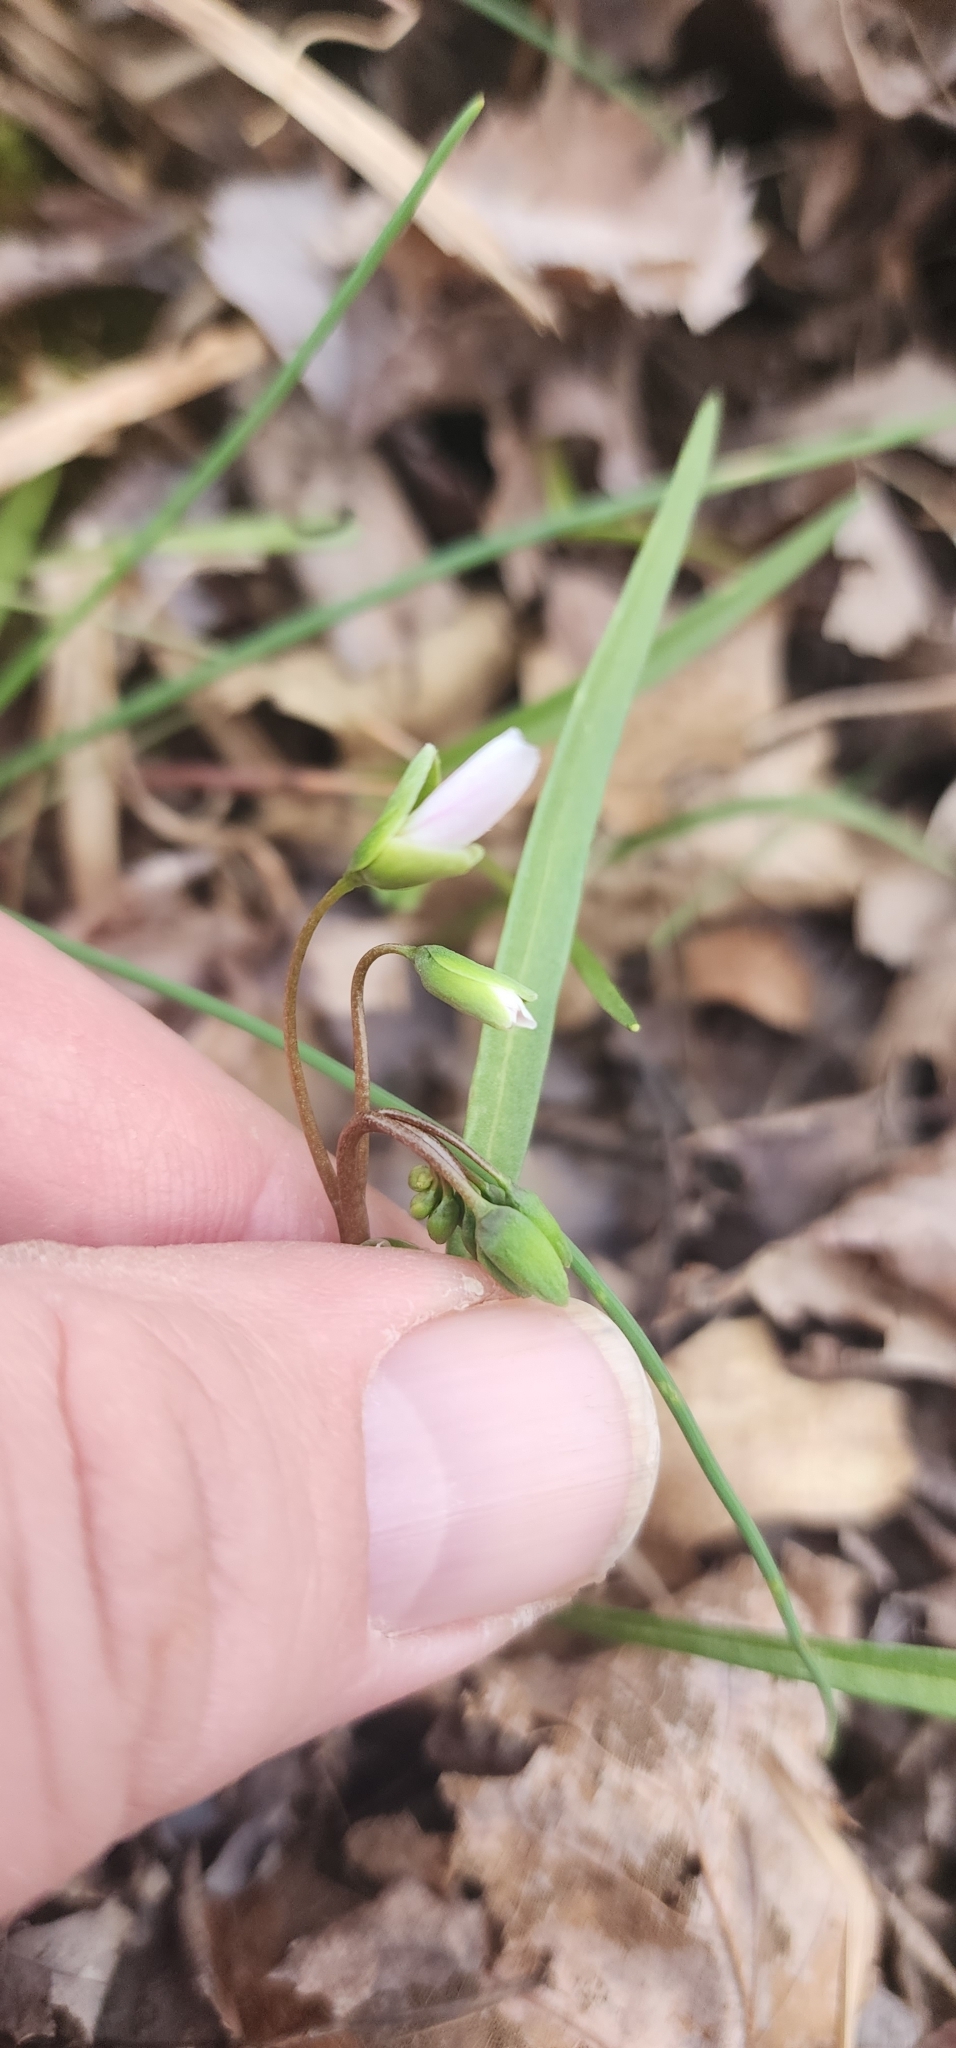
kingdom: Plantae
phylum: Tracheophyta
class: Magnoliopsida
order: Caryophyllales
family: Montiaceae
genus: Claytonia
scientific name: Claytonia virginica
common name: Virginia springbeauty
